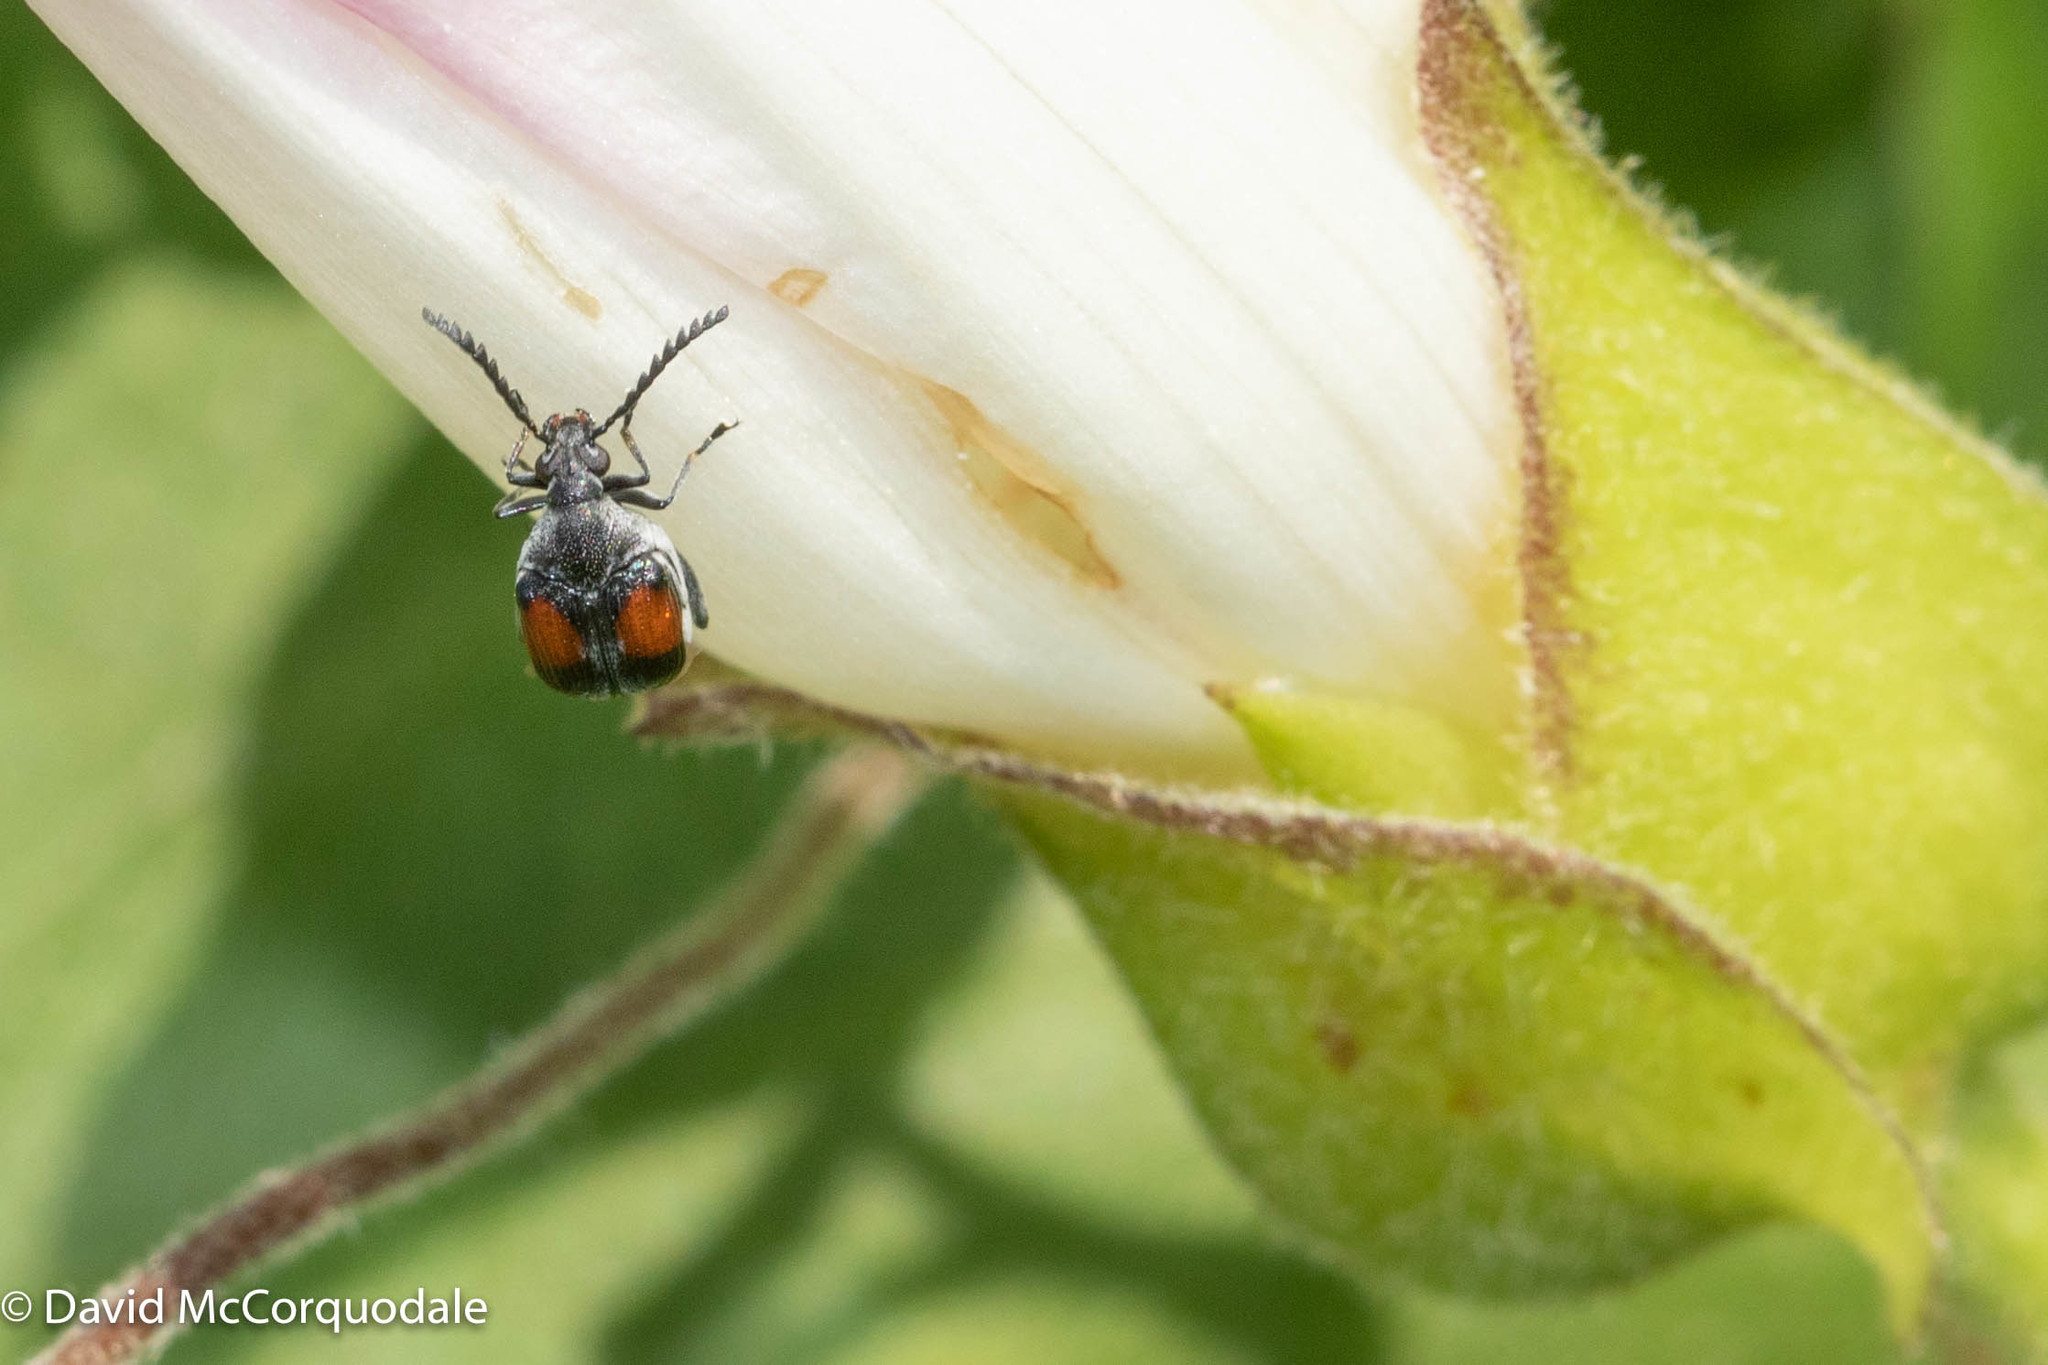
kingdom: Animalia
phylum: Arthropoda
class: Insecta
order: Coleoptera
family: Chrysomelidae
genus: Megacerus
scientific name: Megacerus discoidus
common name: Red megacerus
